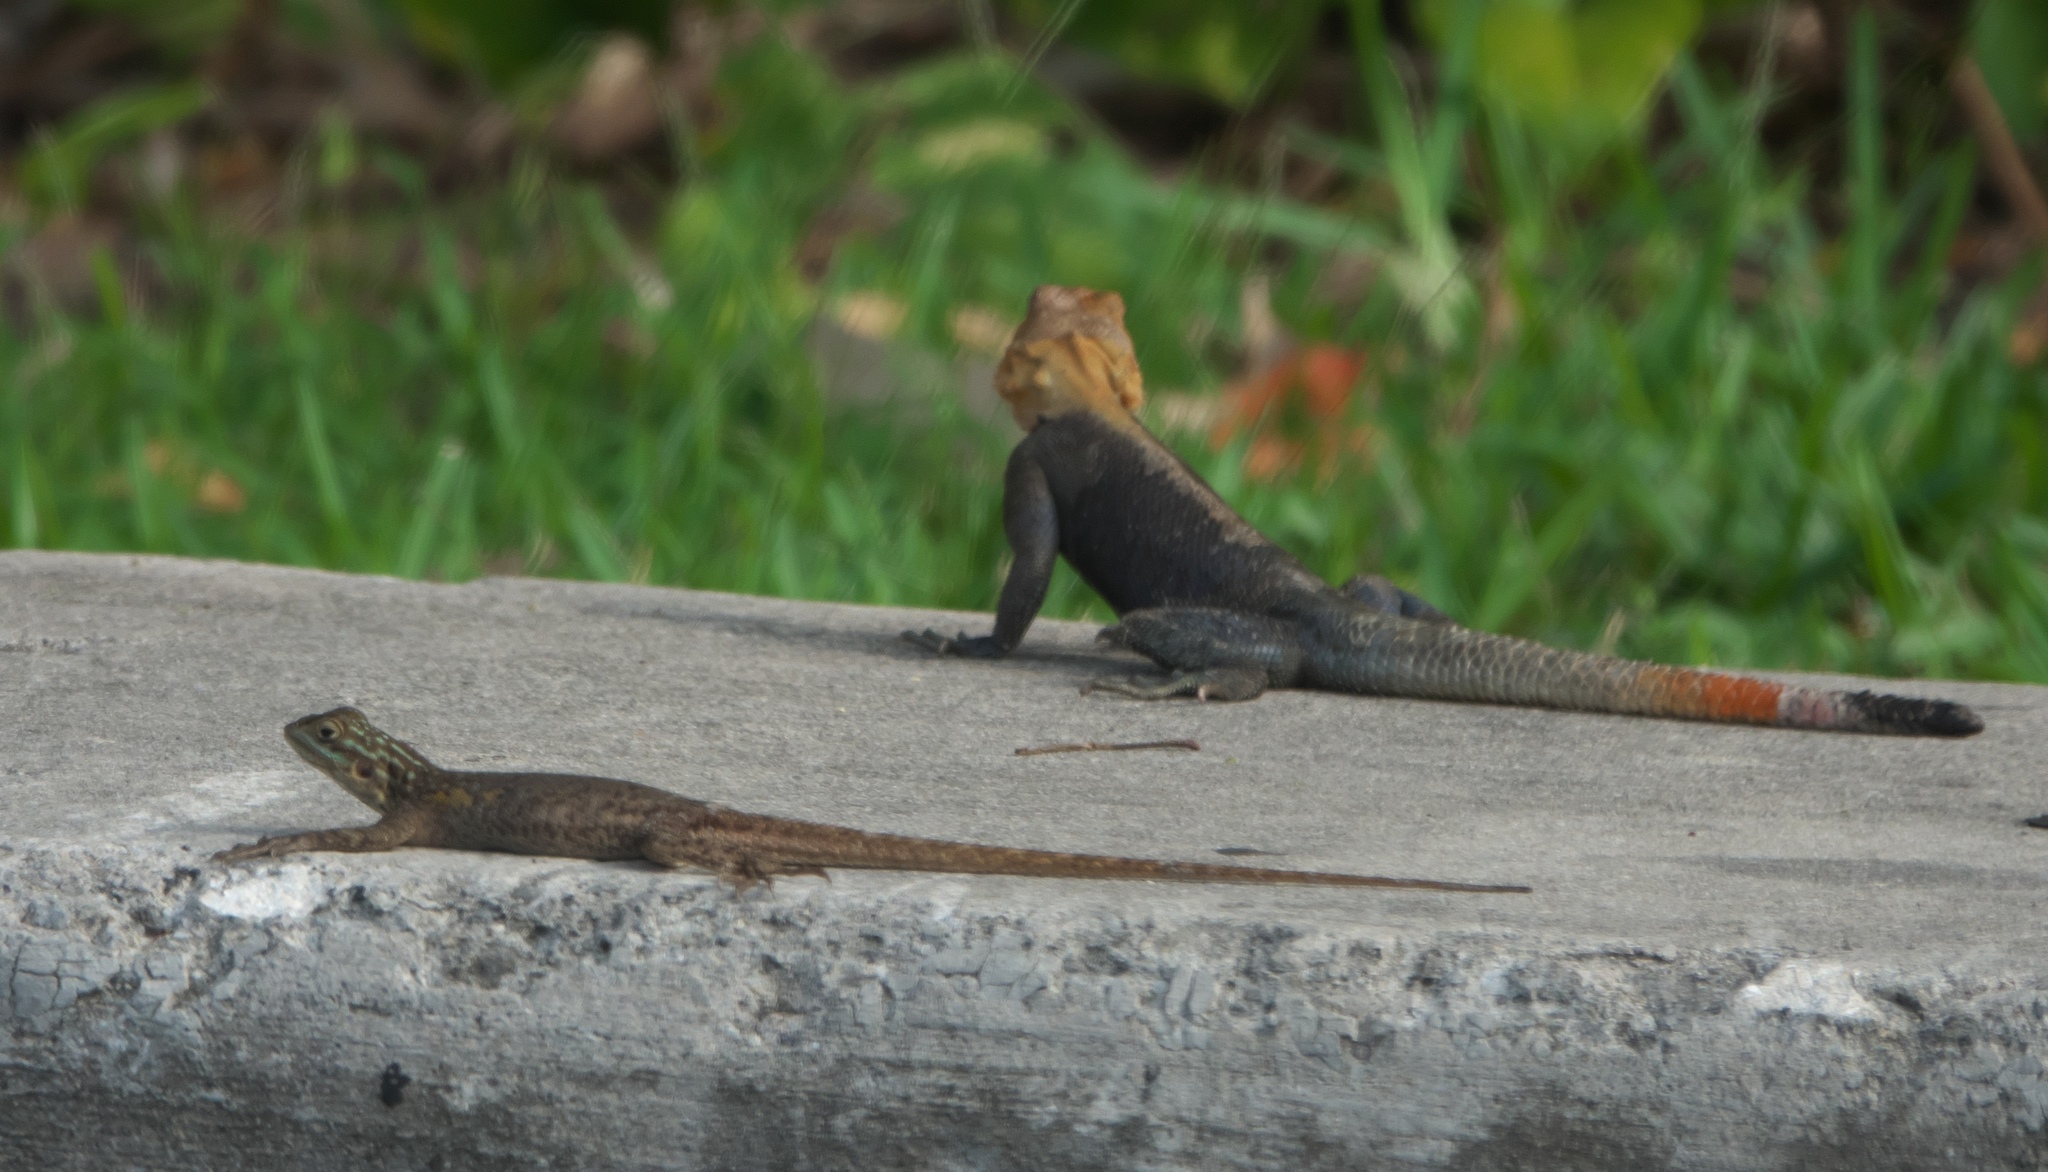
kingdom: Animalia
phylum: Chordata
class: Squamata
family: Agamidae
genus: Agama
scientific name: Agama picticauda
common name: Red-headed agama
